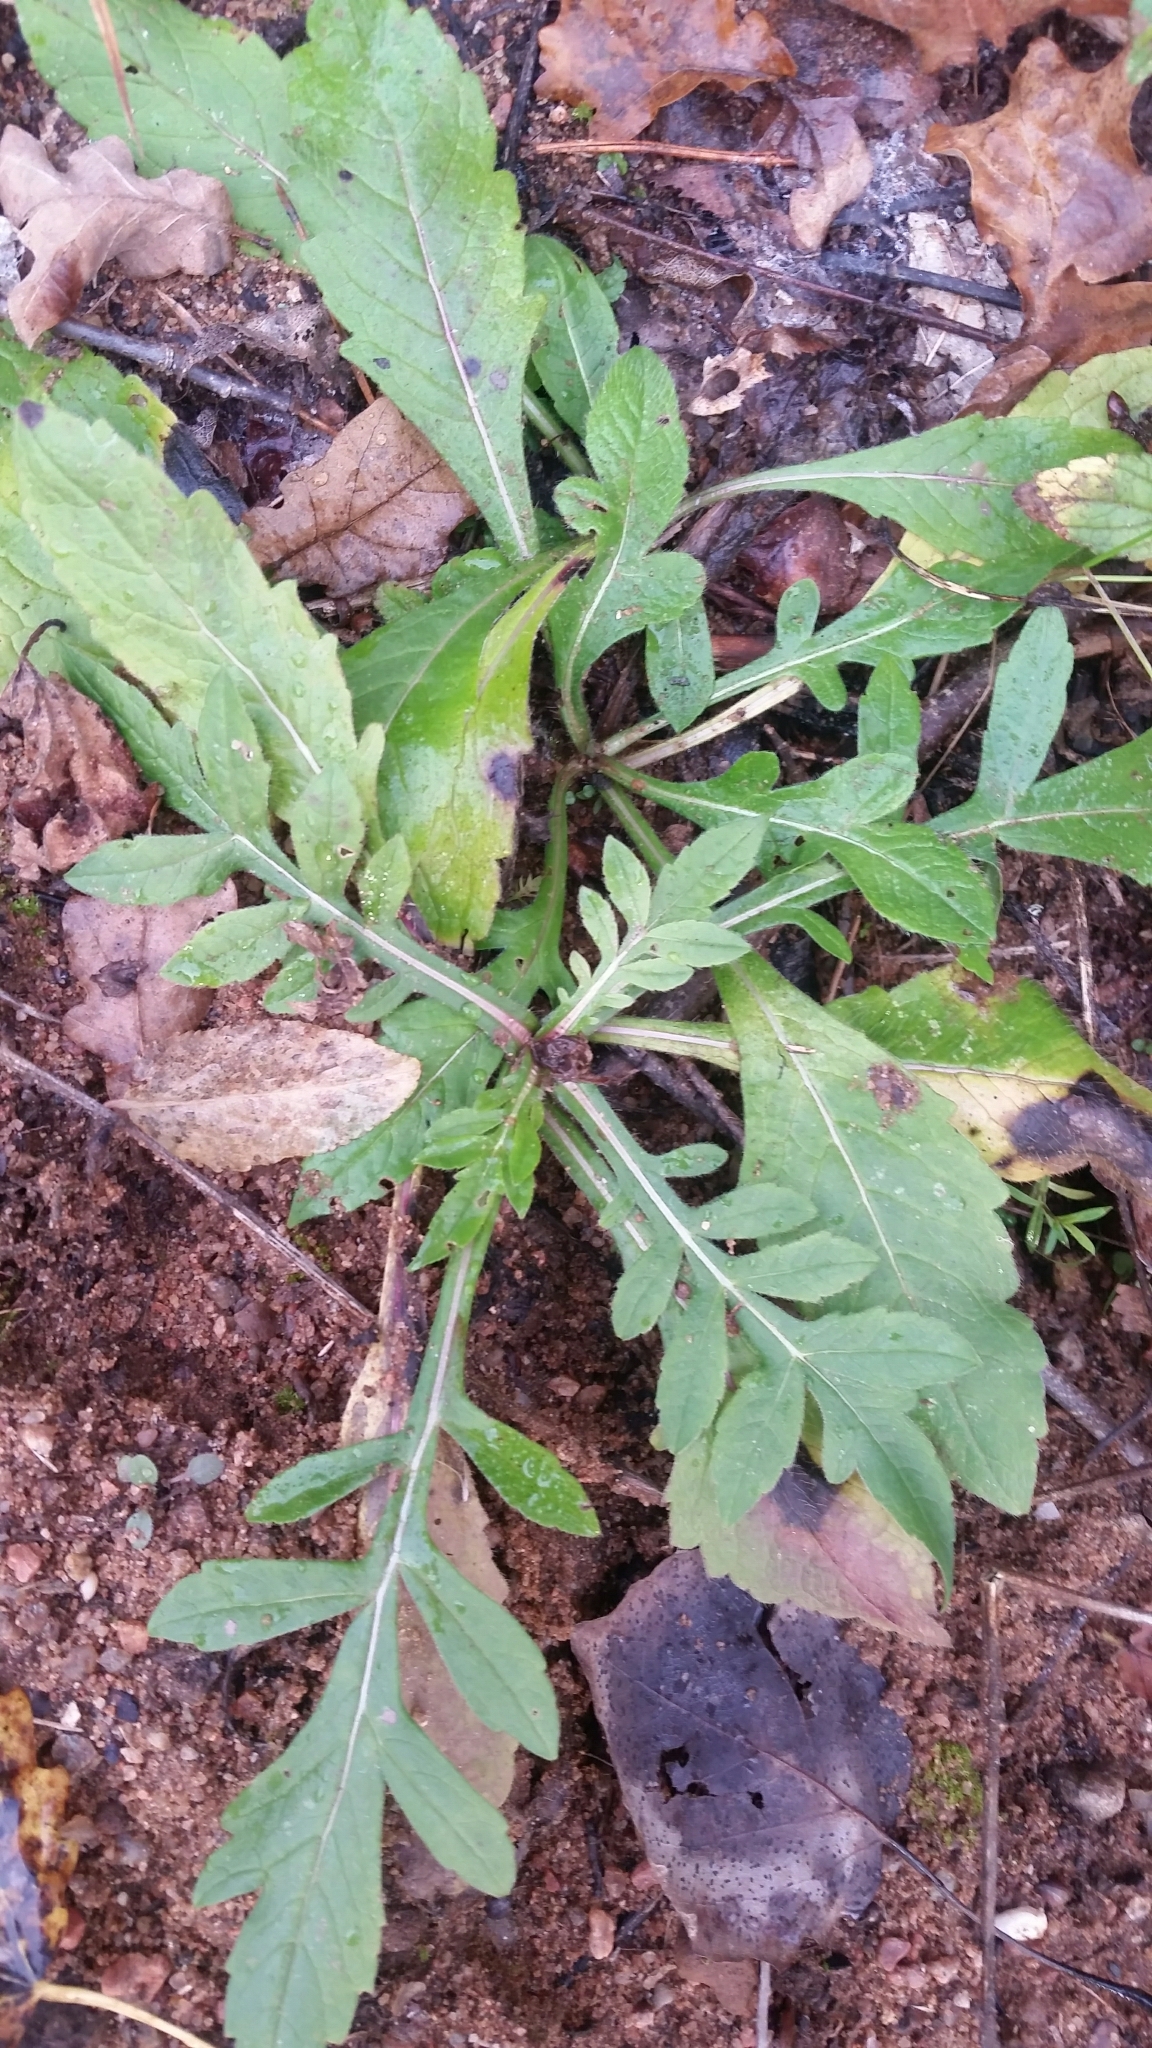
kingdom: Plantae
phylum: Tracheophyta
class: Magnoliopsida
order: Dipsacales
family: Caprifoliaceae
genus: Knautia
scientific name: Knautia arvensis
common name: Field scabiosa
